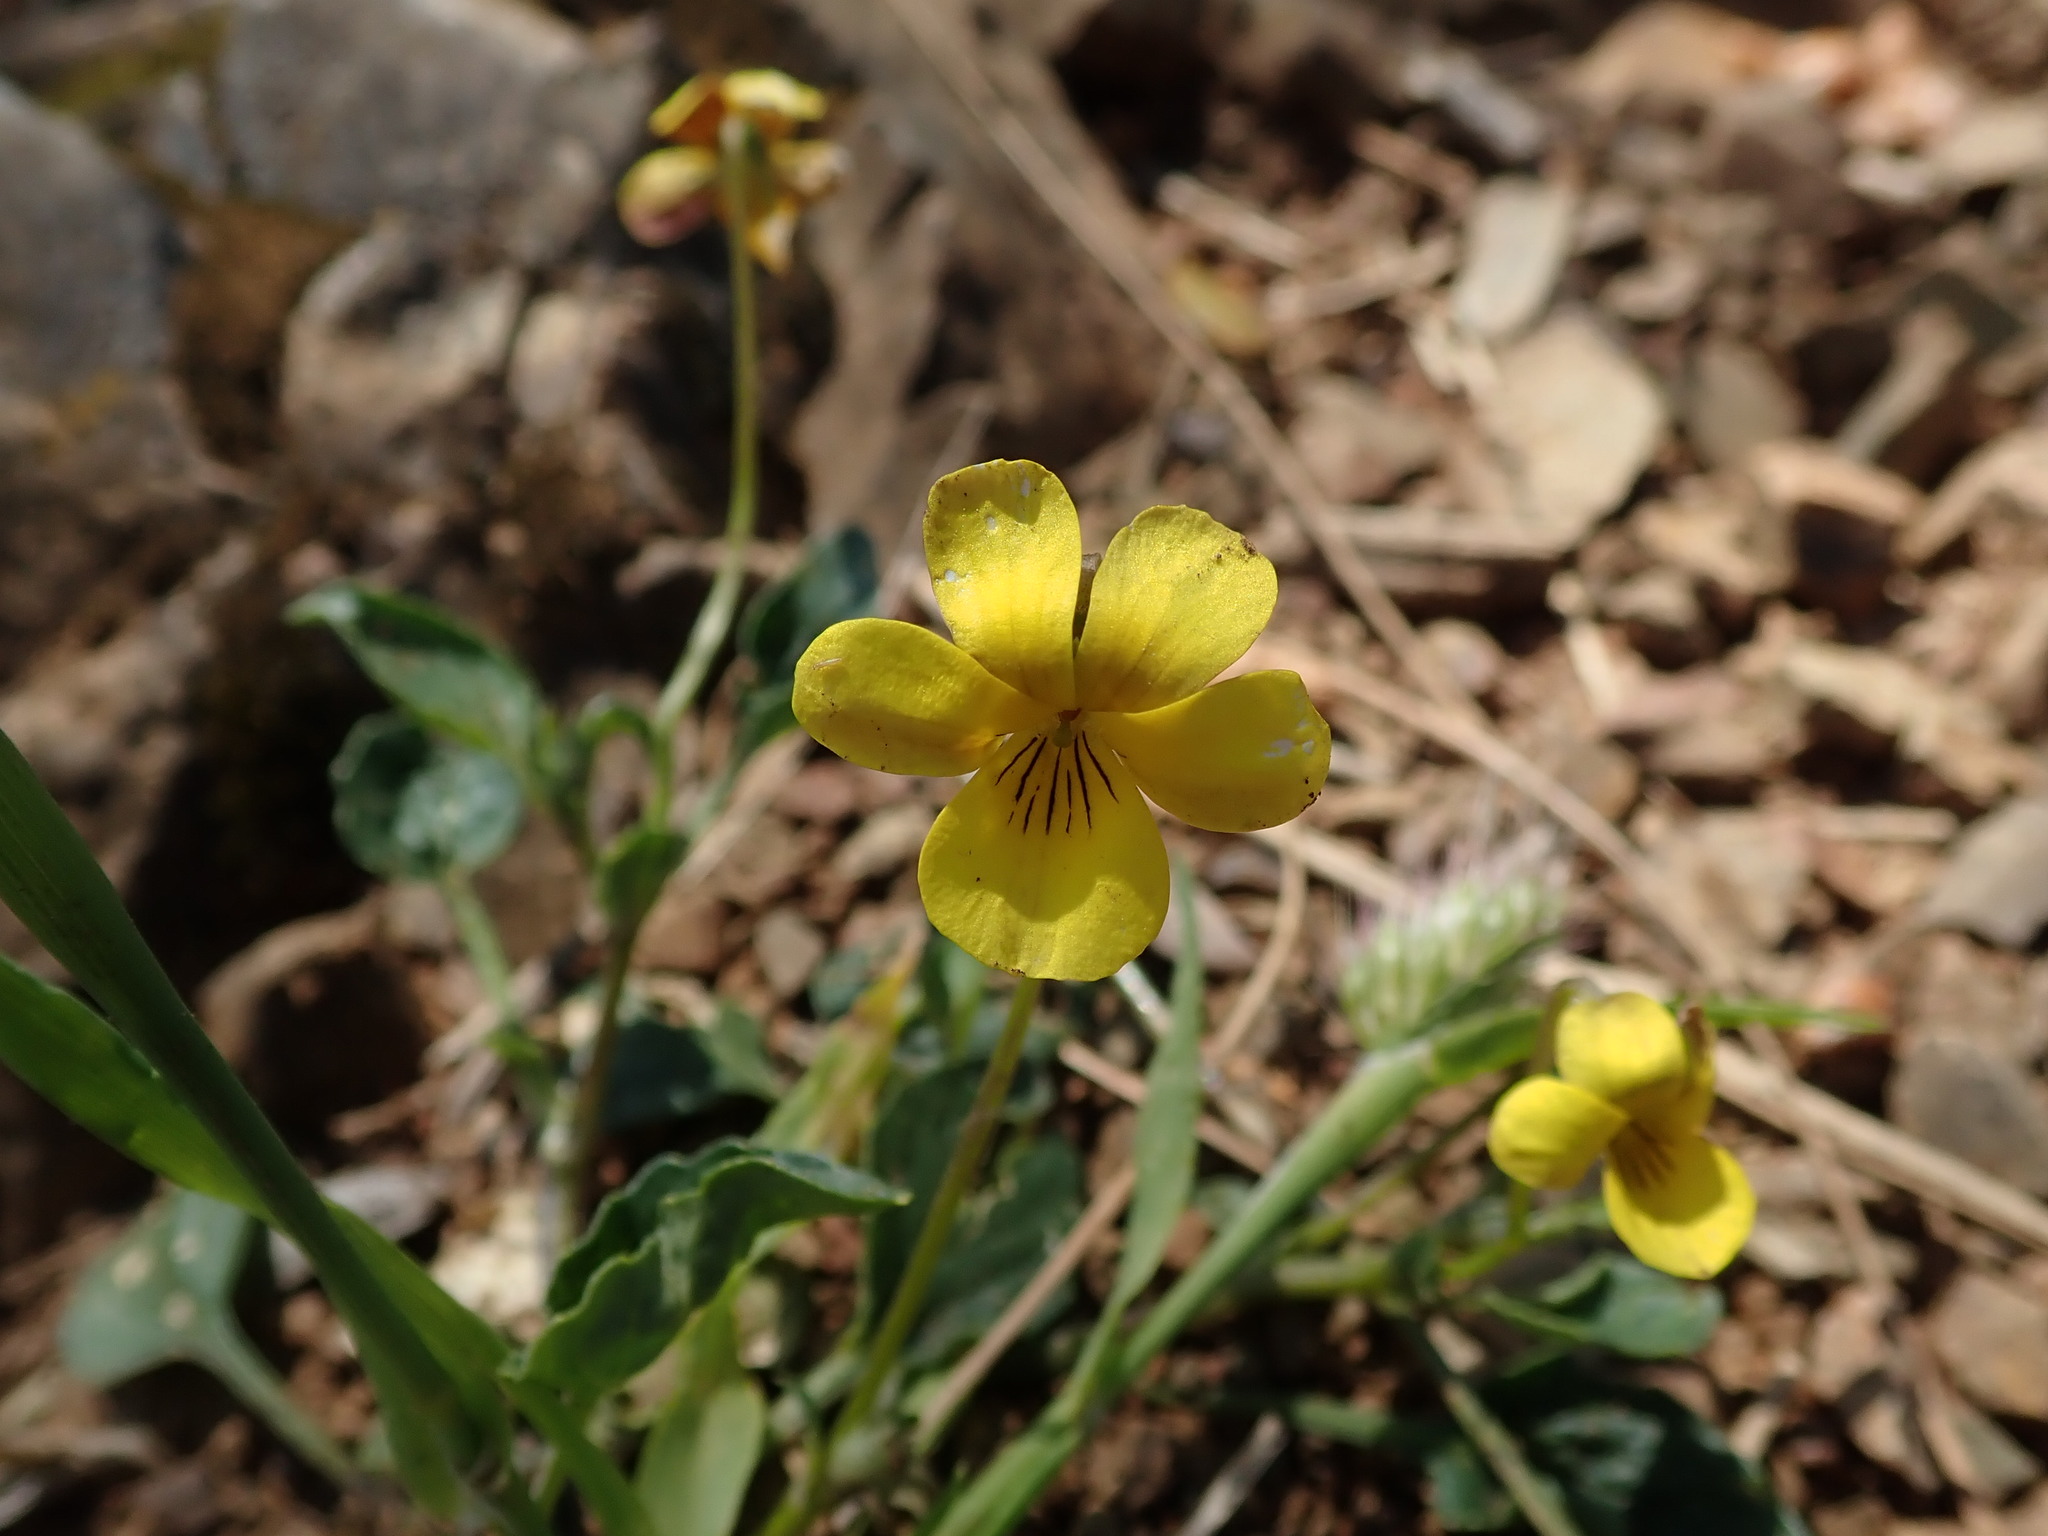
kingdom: Plantae
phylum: Tracheophyta
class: Magnoliopsida
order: Malpighiales
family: Violaceae
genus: Viola
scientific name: Viola purpurea
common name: Pine violet
